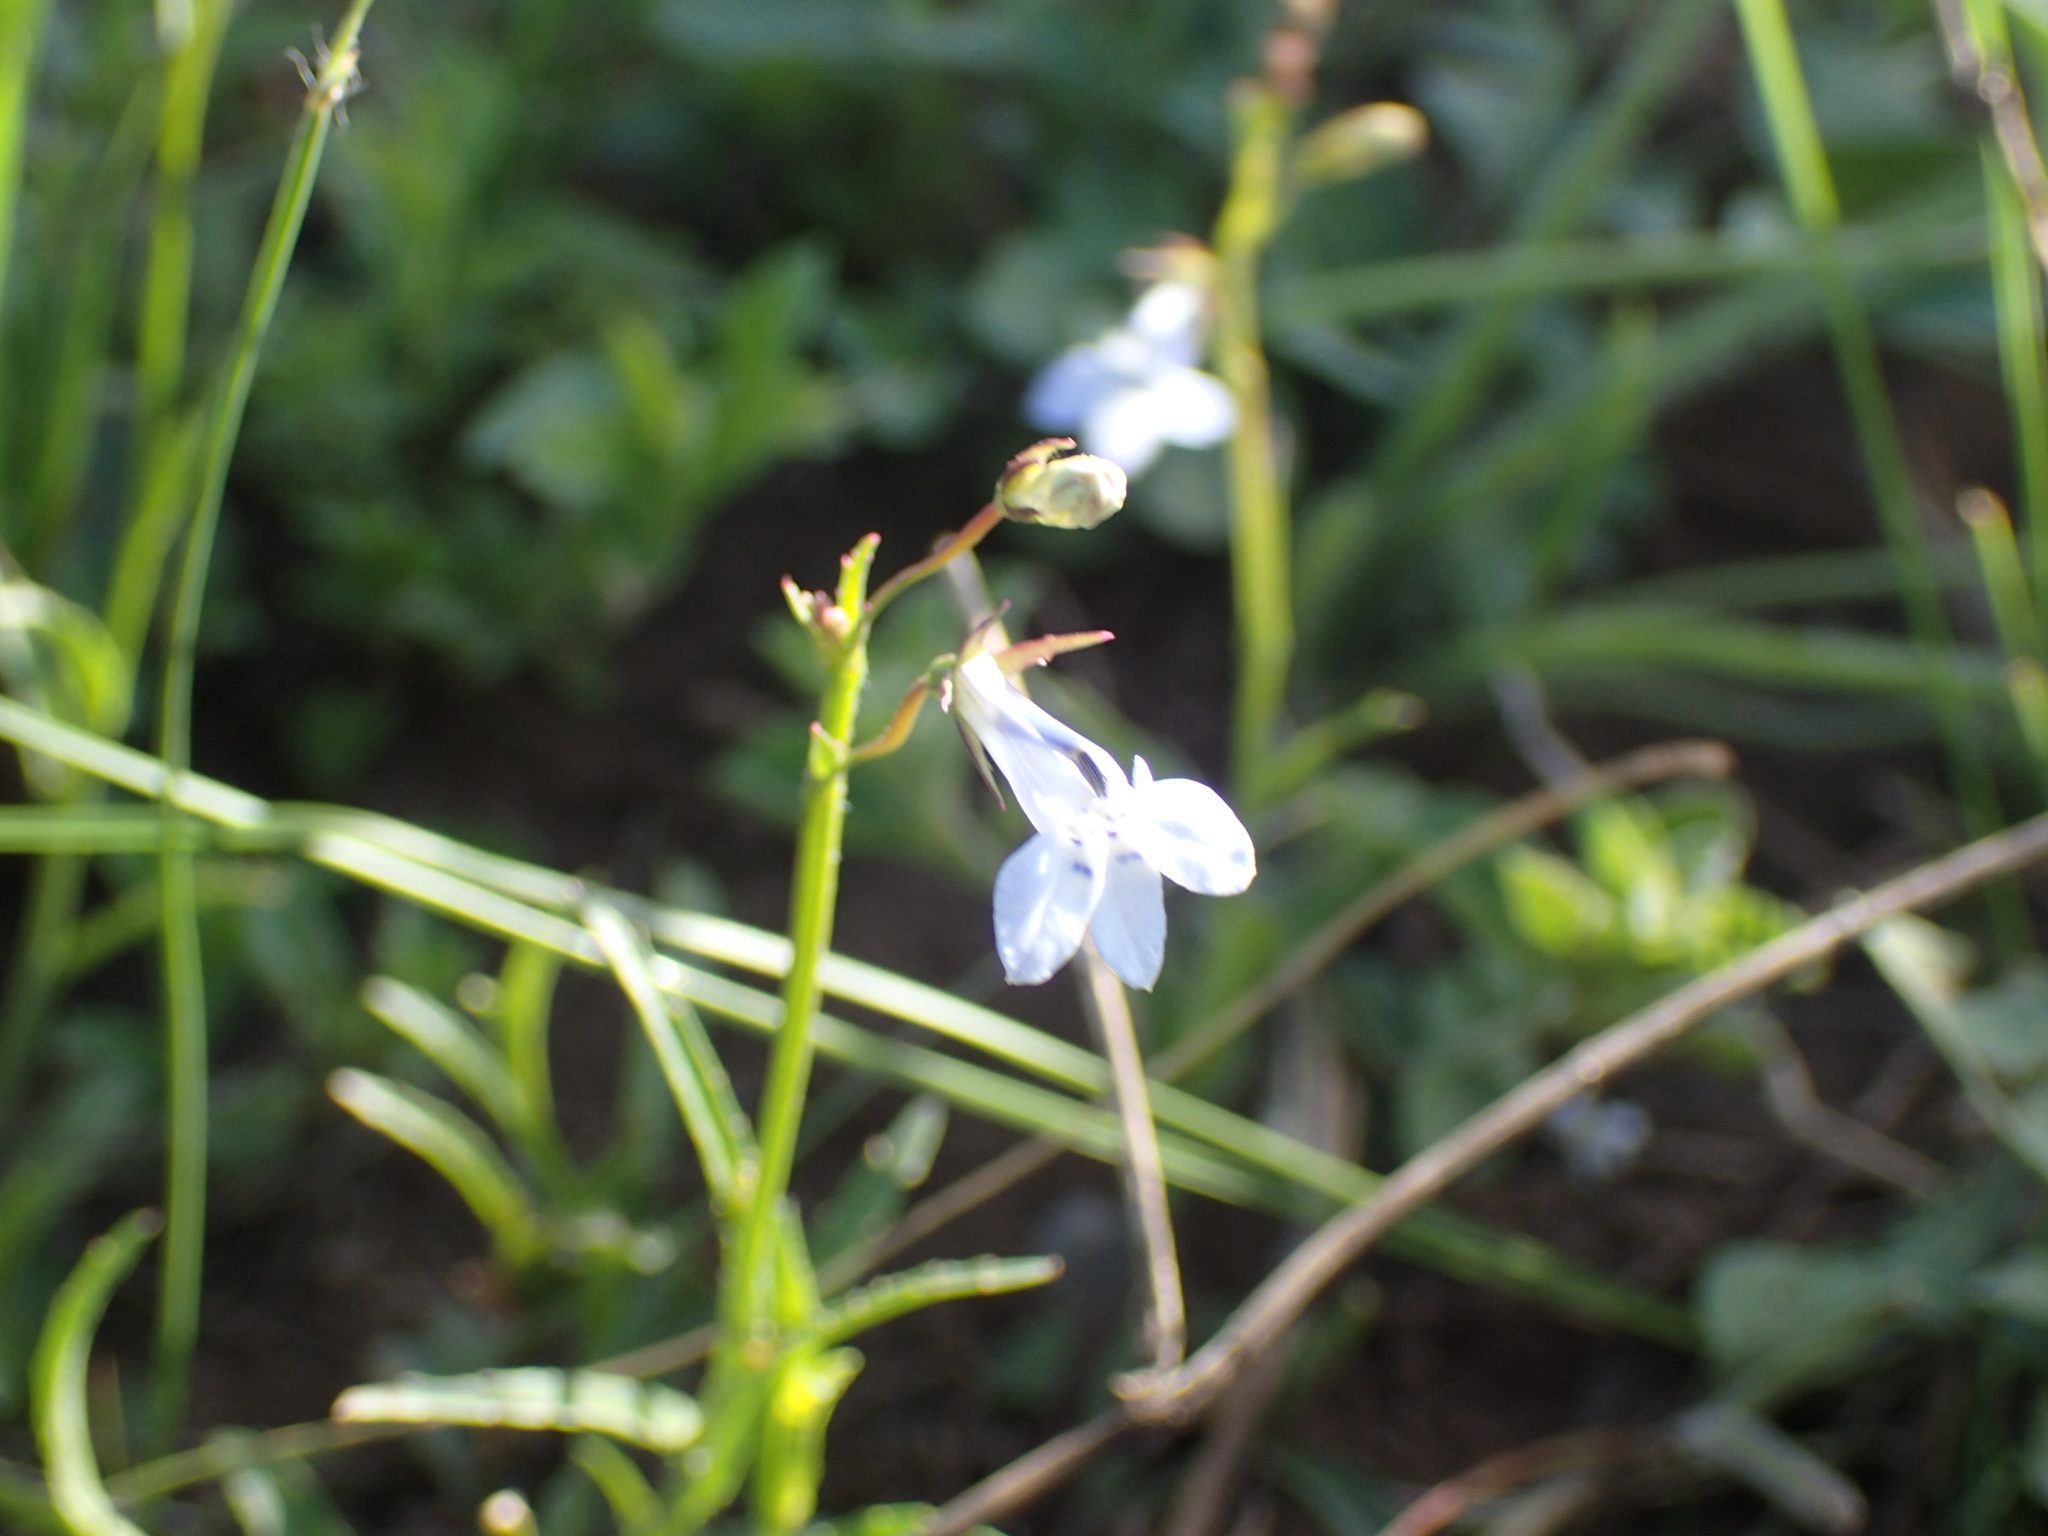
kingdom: Plantae
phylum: Tracheophyta
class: Magnoliopsida
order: Asterales
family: Campanulaceae
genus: Lobelia
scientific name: Lobelia flaccida
